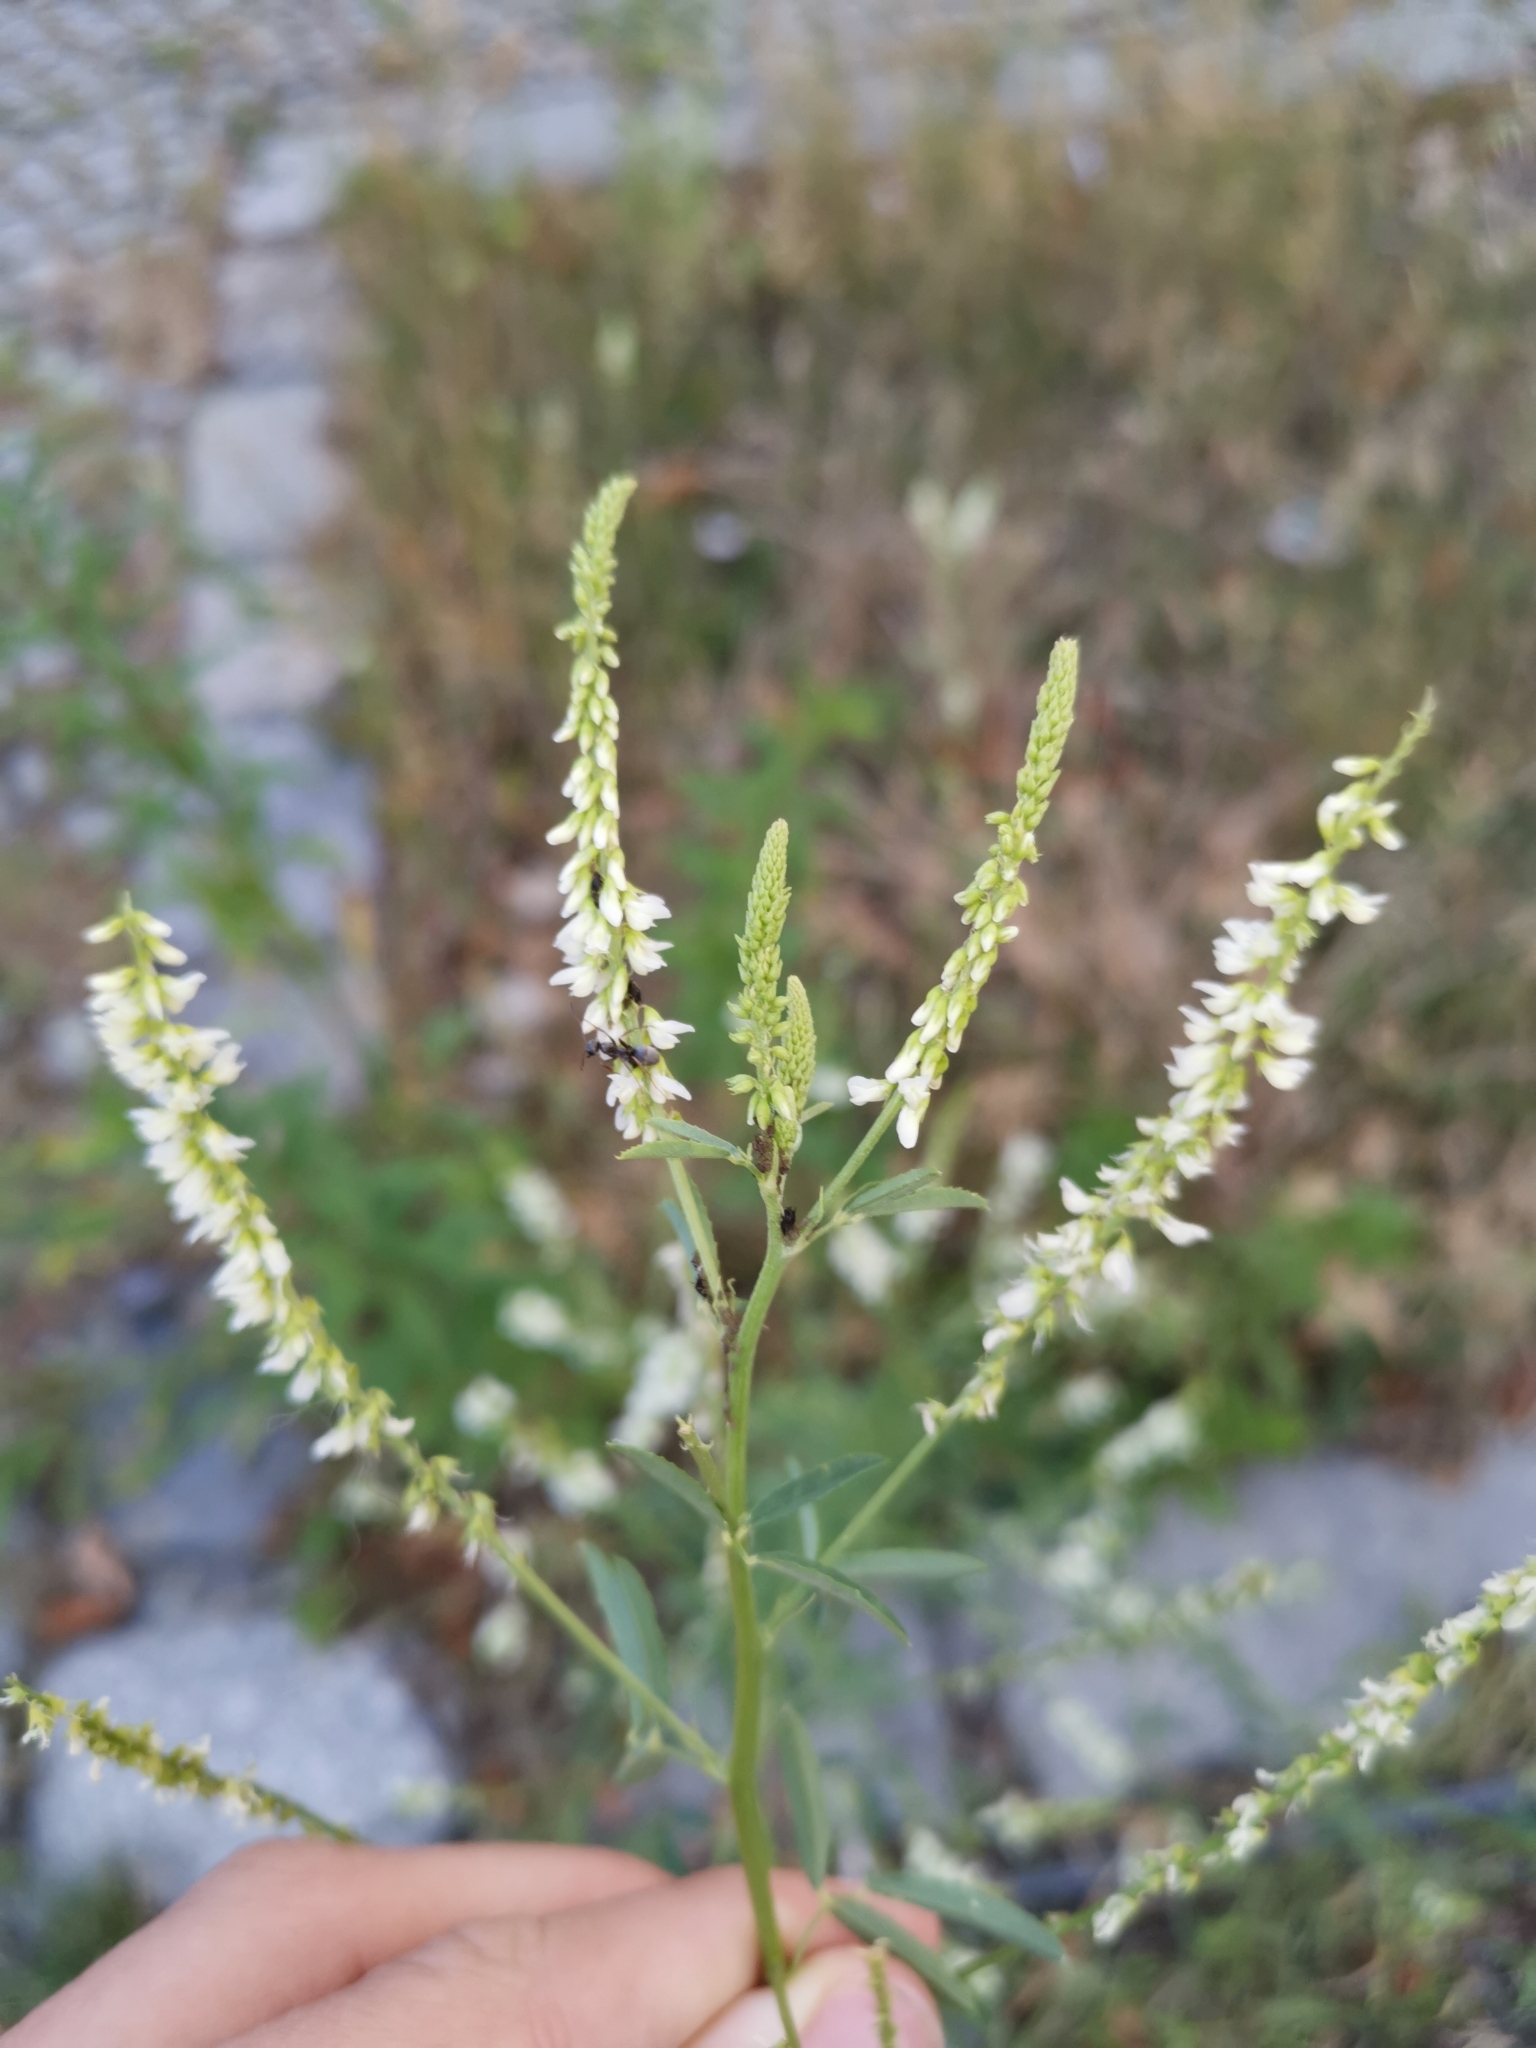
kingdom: Plantae
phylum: Tracheophyta
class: Magnoliopsida
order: Fabales
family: Fabaceae
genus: Melilotus
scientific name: Melilotus albus
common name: White melilot
